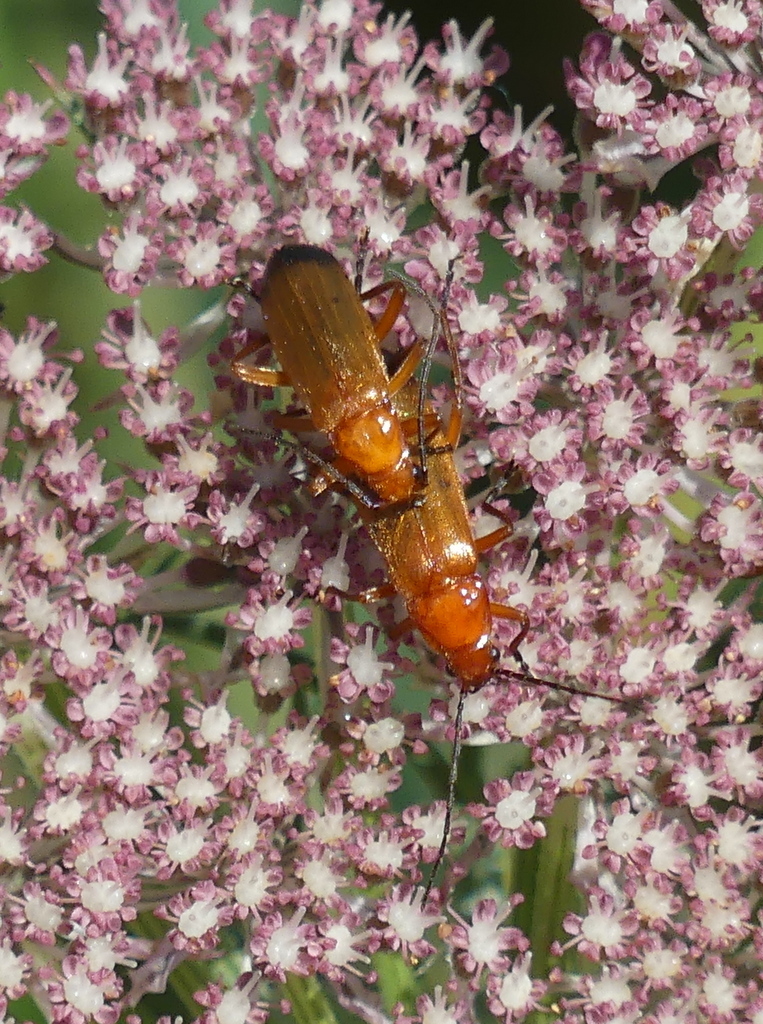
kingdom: Animalia
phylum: Arthropoda
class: Insecta
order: Coleoptera
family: Cantharidae
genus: Rhagonycha
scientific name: Rhagonycha fulva
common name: Common red soldier beetle
